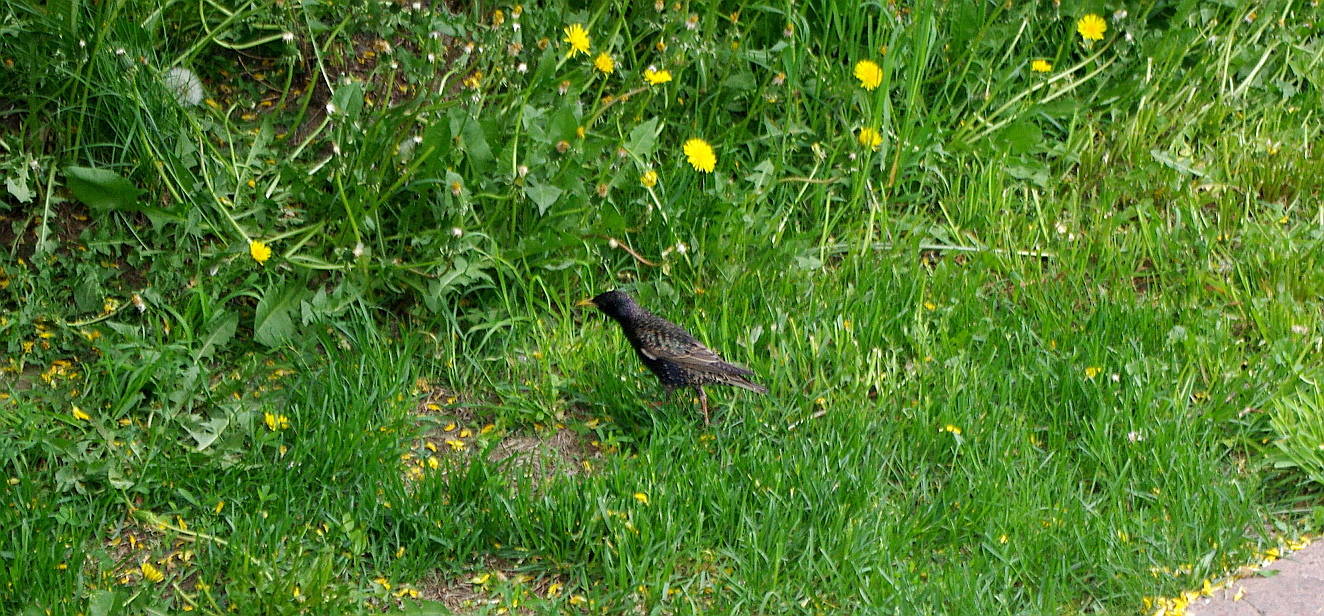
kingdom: Animalia
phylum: Chordata
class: Aves
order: Passeriformes
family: Sturnidae
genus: Sturnus
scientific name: Sturnus vulgaris
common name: Common starling
